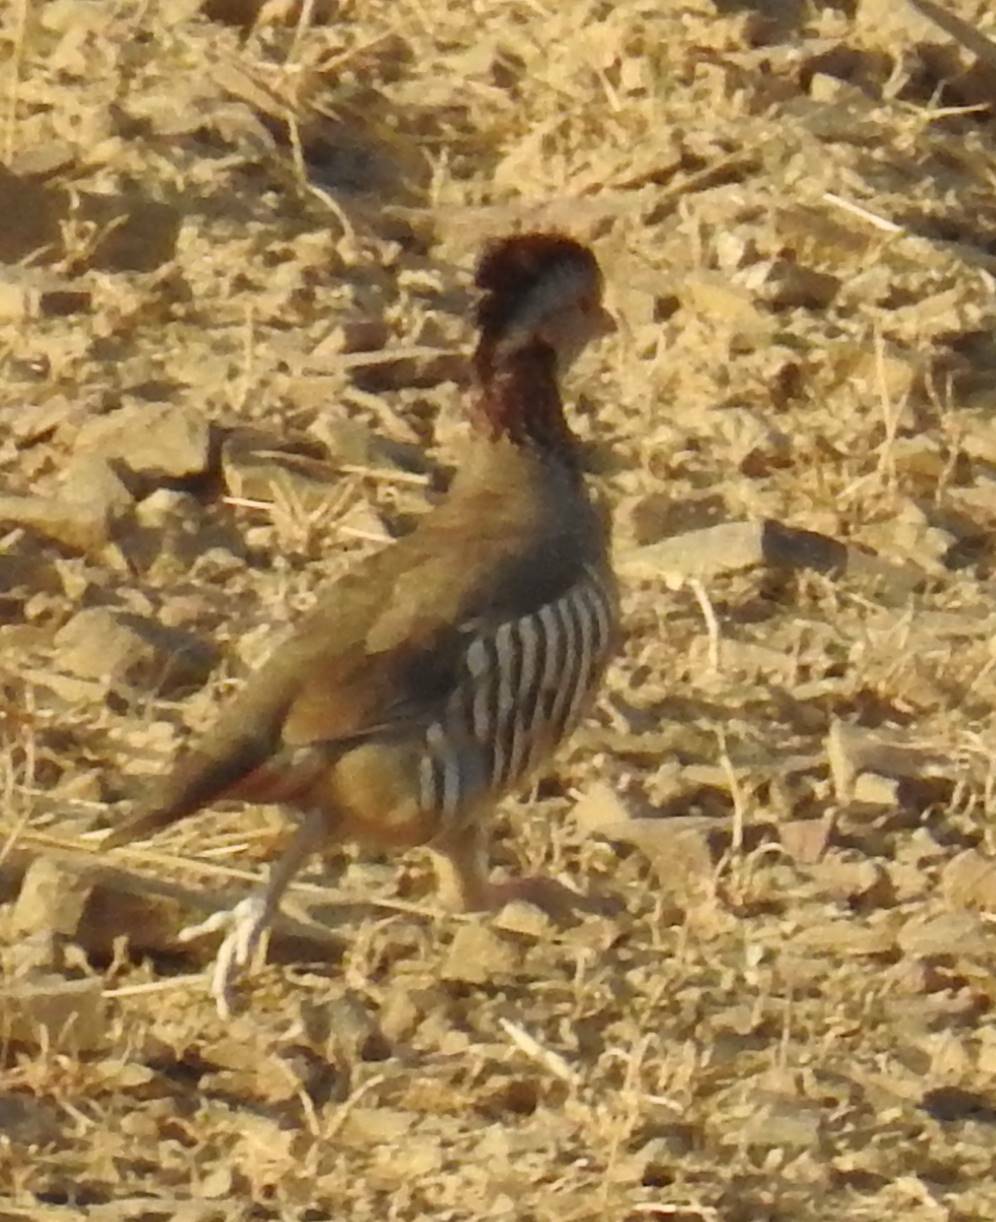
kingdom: Animalia
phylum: Chordata
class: Aves
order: Galliformes
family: Phasianidae
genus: Alectoris
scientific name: Alectoris barbara
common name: Barbary partridge
